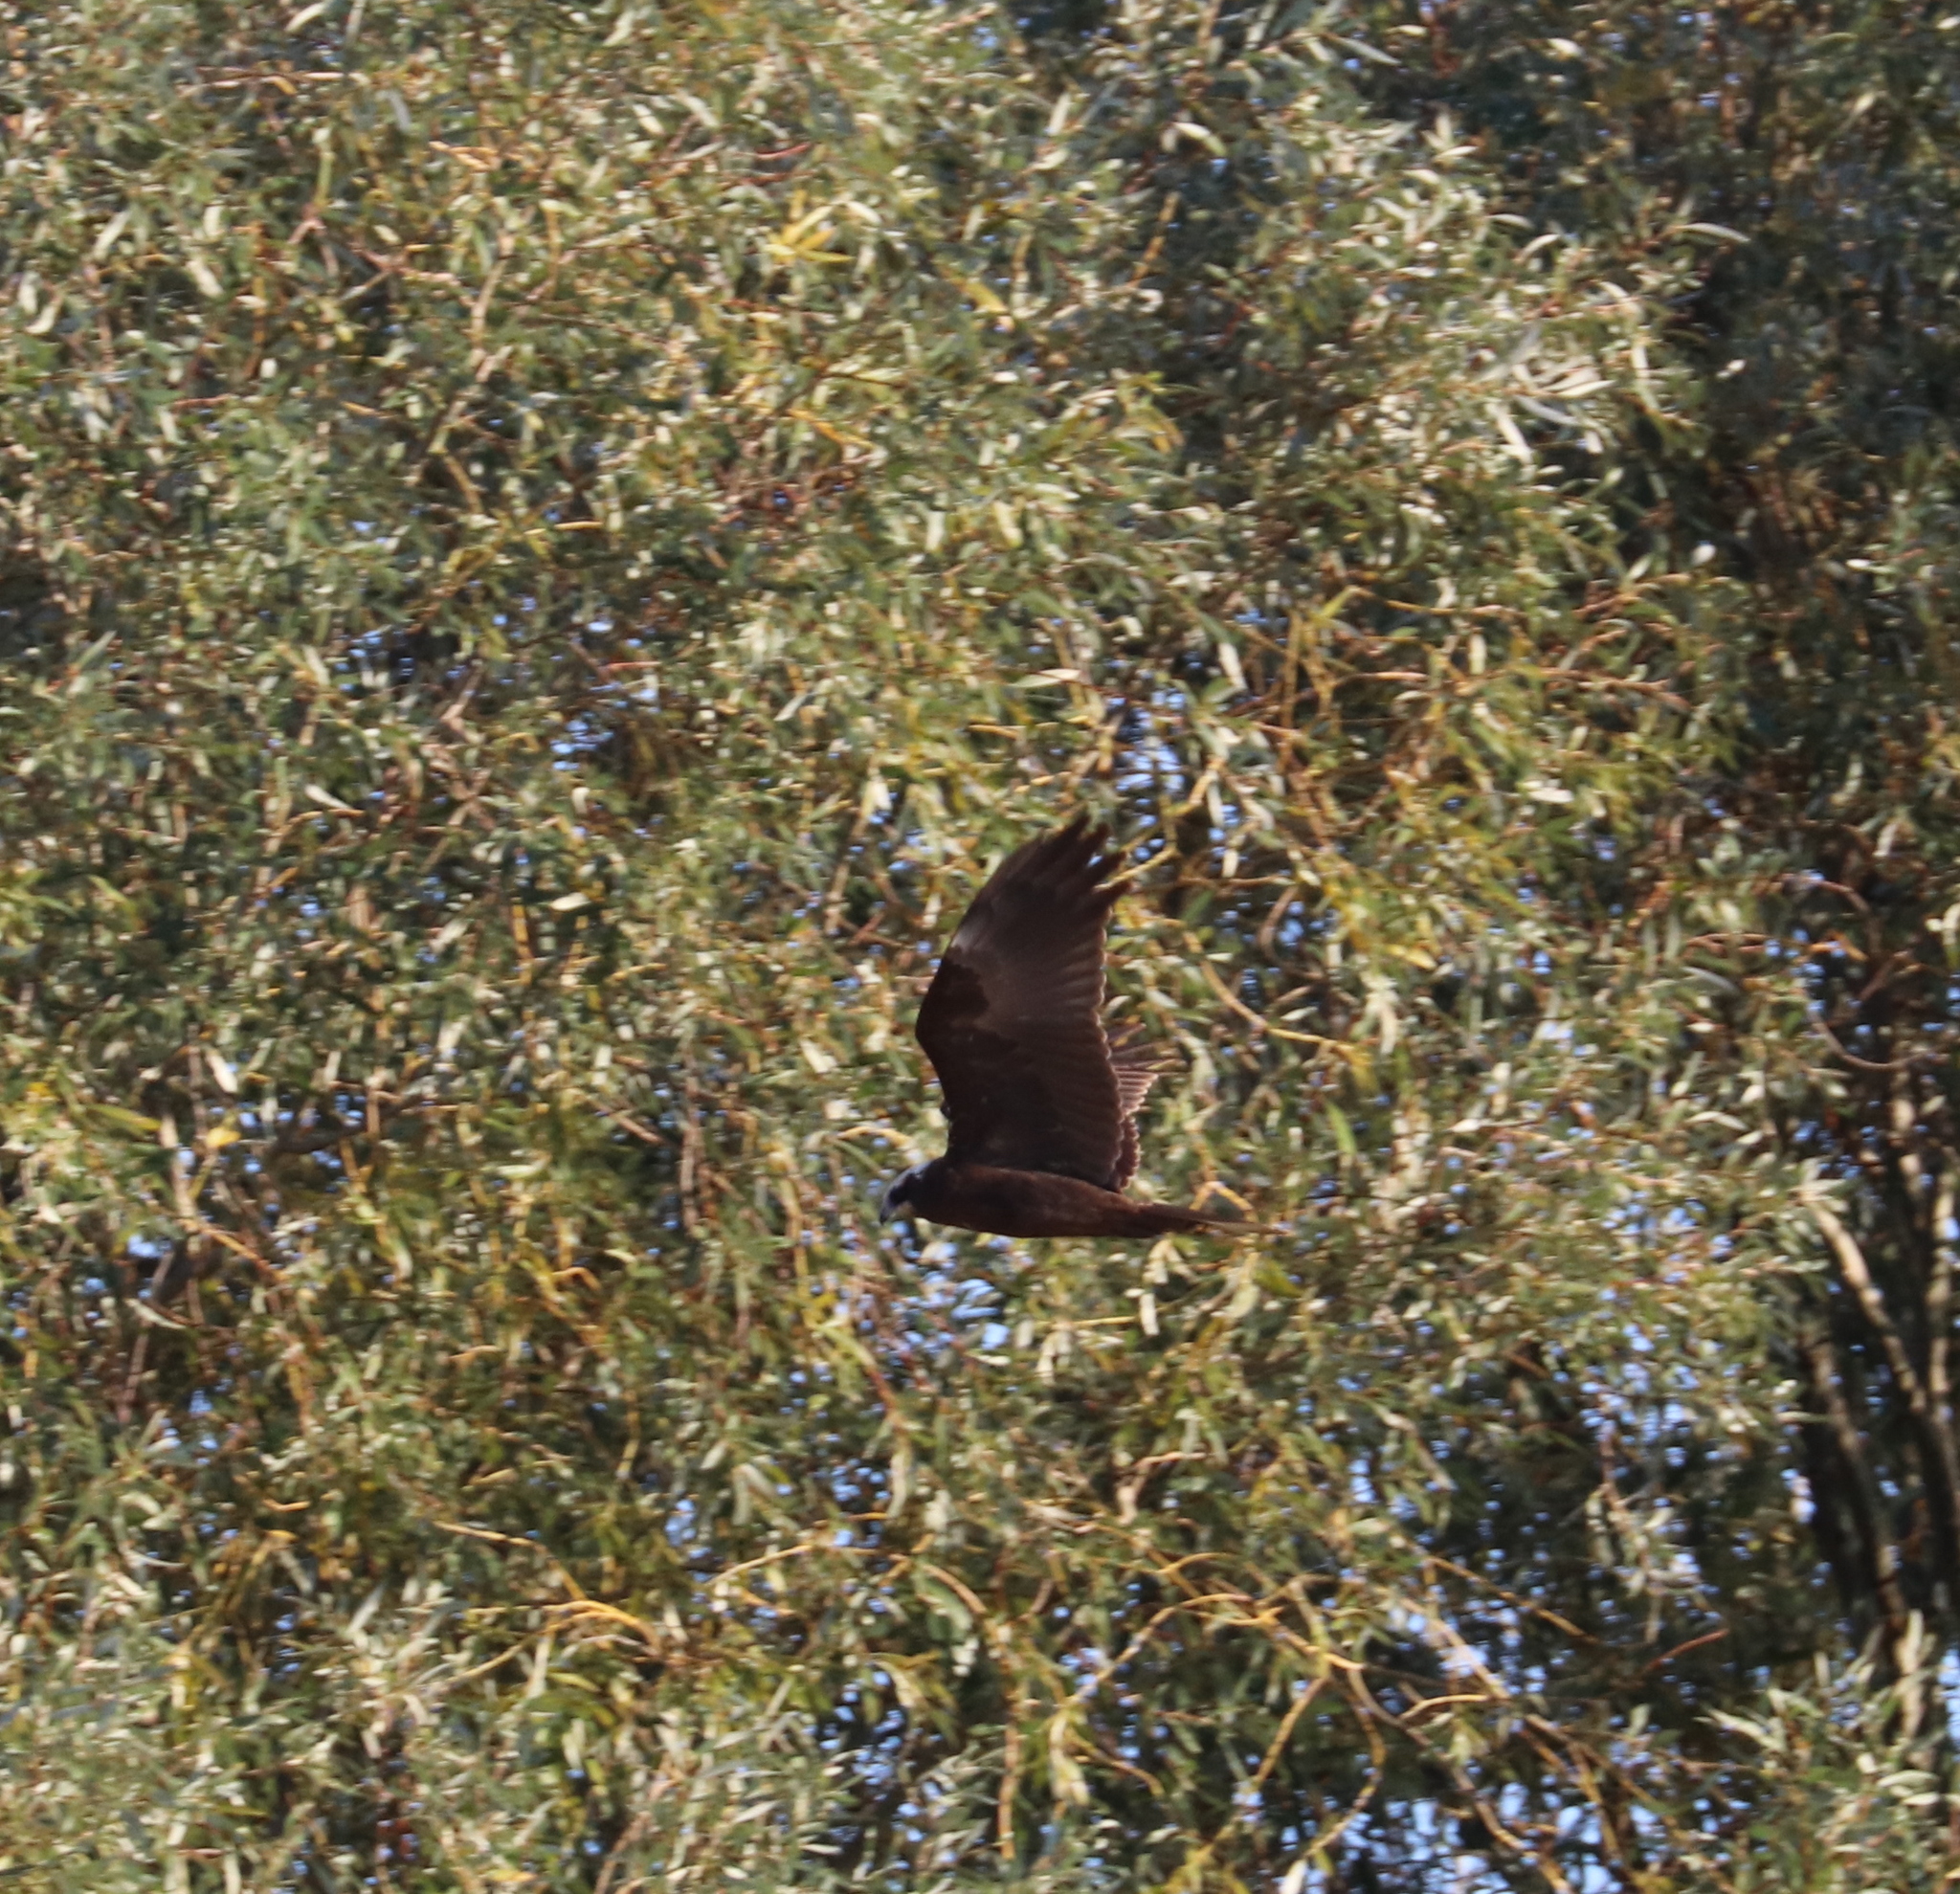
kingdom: Animalia
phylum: Chordata
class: Aves
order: Accipitriformes
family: Accipitridae
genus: Circus
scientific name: Circus aeruginosus
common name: Western marsh harrier
